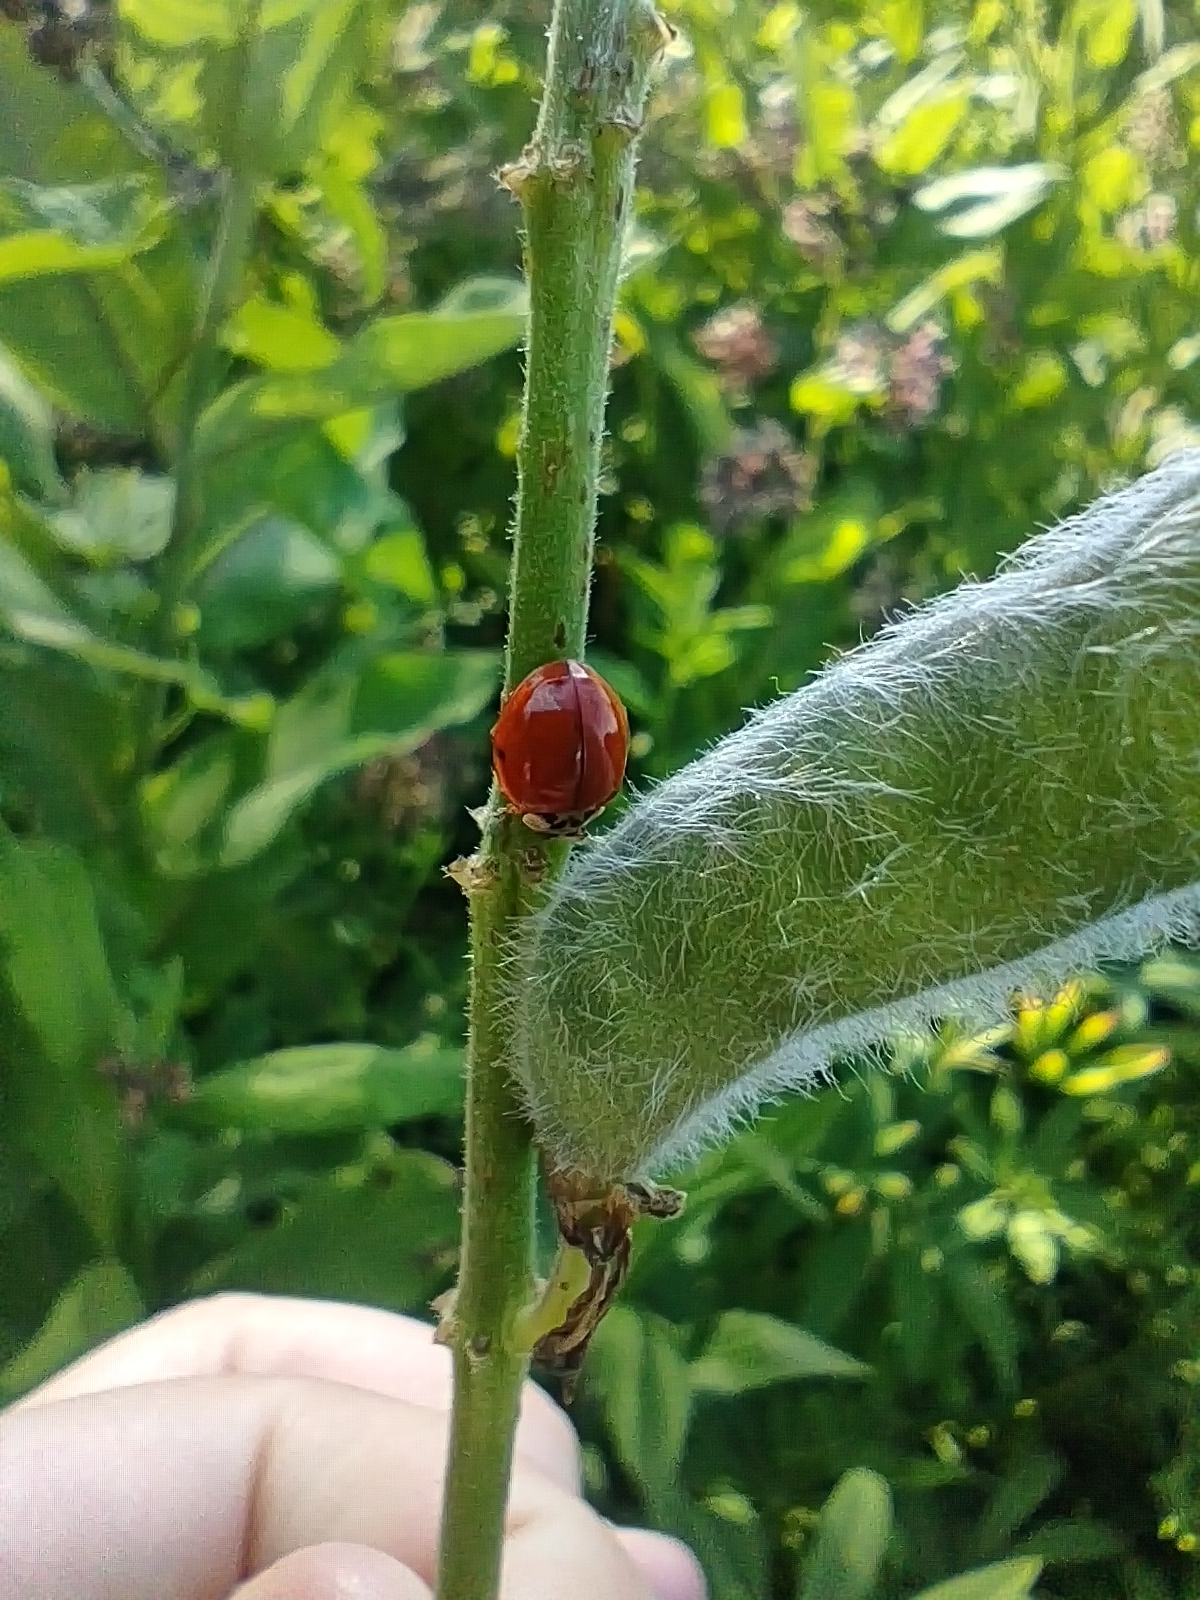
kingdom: Animalia
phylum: Arthropoda
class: Insecta
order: Coleoptera
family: Coccinellidae
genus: Harmonia
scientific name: Harmonia axyridis
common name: Harlequin ladybird
